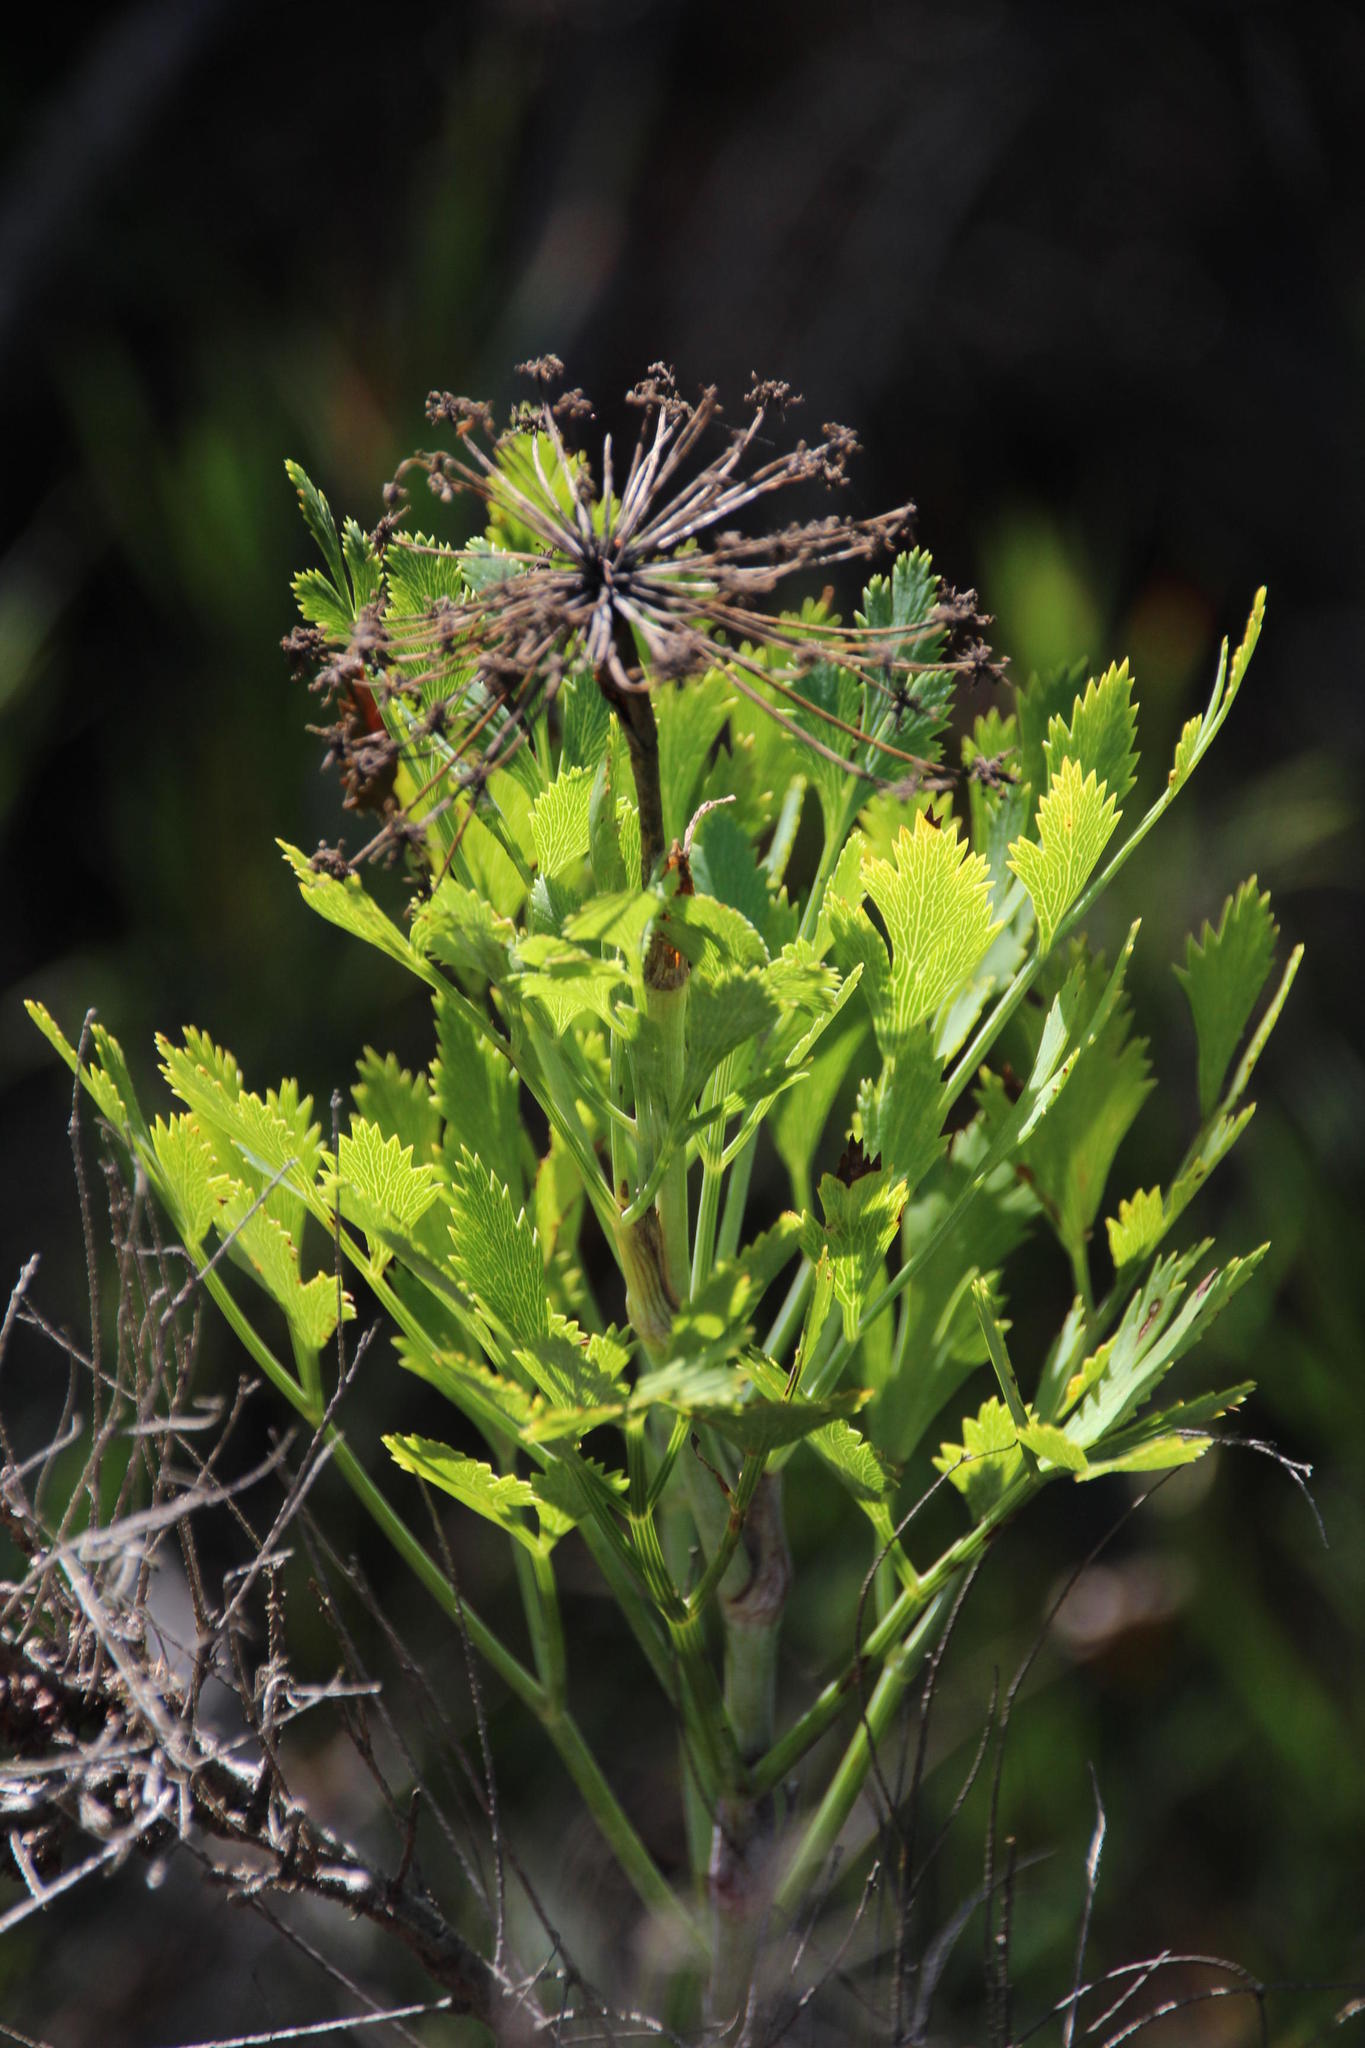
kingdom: Plantae
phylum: Tracheophyta
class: Magnoliopsida
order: Apiales
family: Apiaceae
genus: Notobubon
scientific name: Notobubon galbanum
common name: Blisterbush
